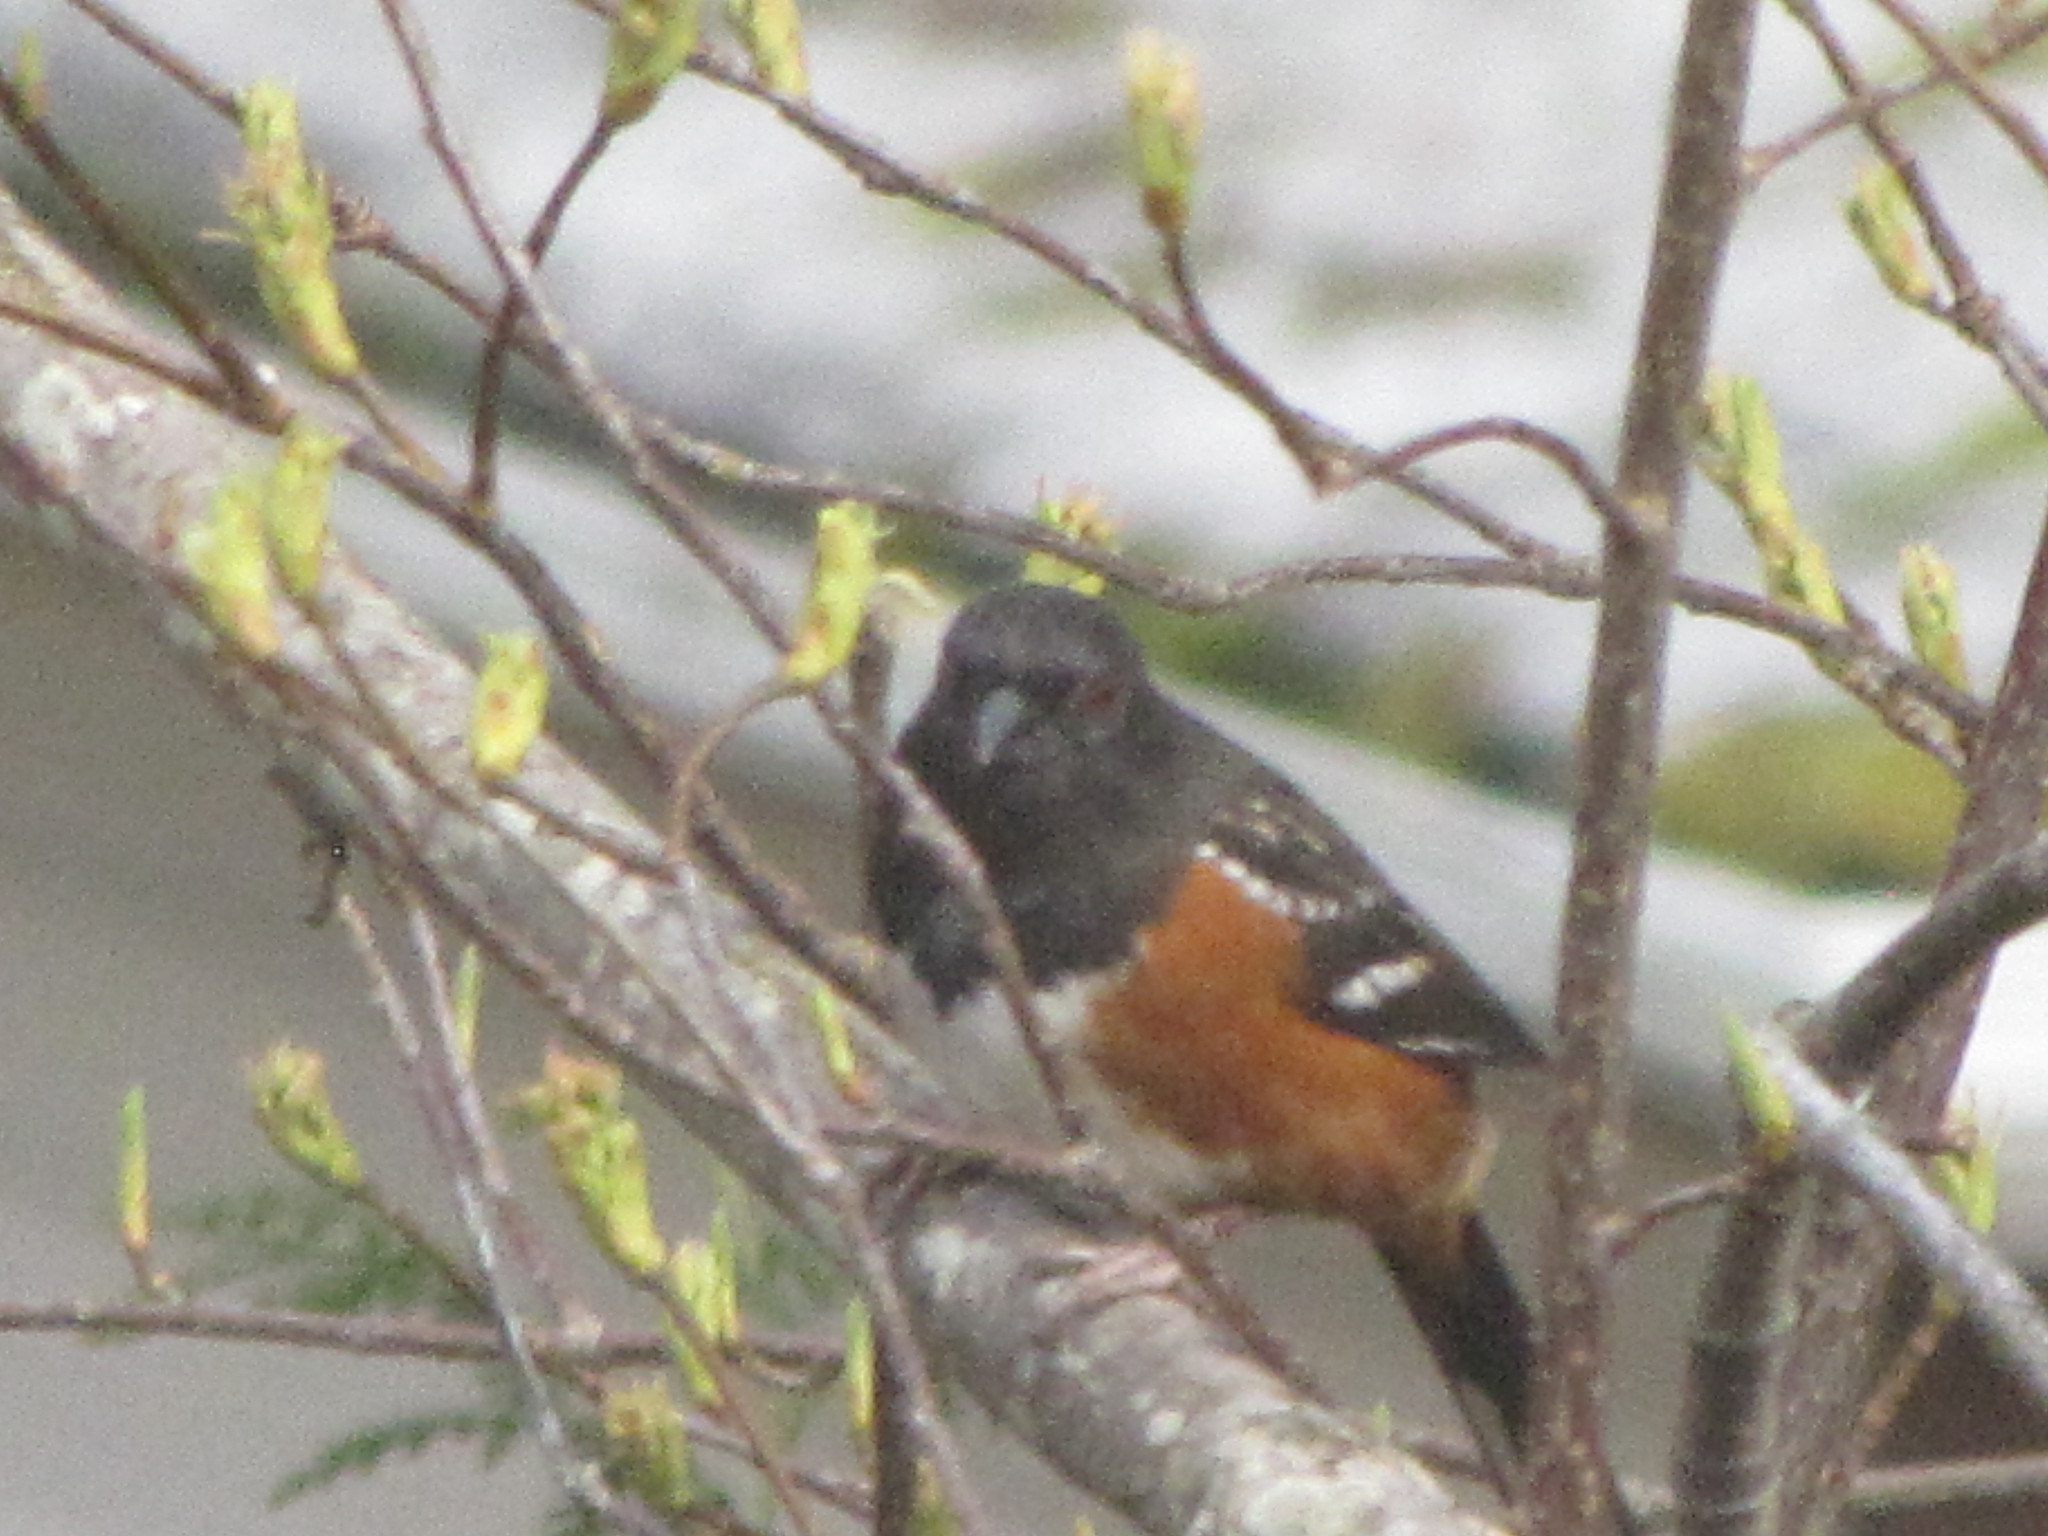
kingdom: Animalia
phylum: Chordata
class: Aves
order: Passeriformes
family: Passerellidae
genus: Pipilo
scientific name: Pipilo maculatus
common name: Spotted towhee
